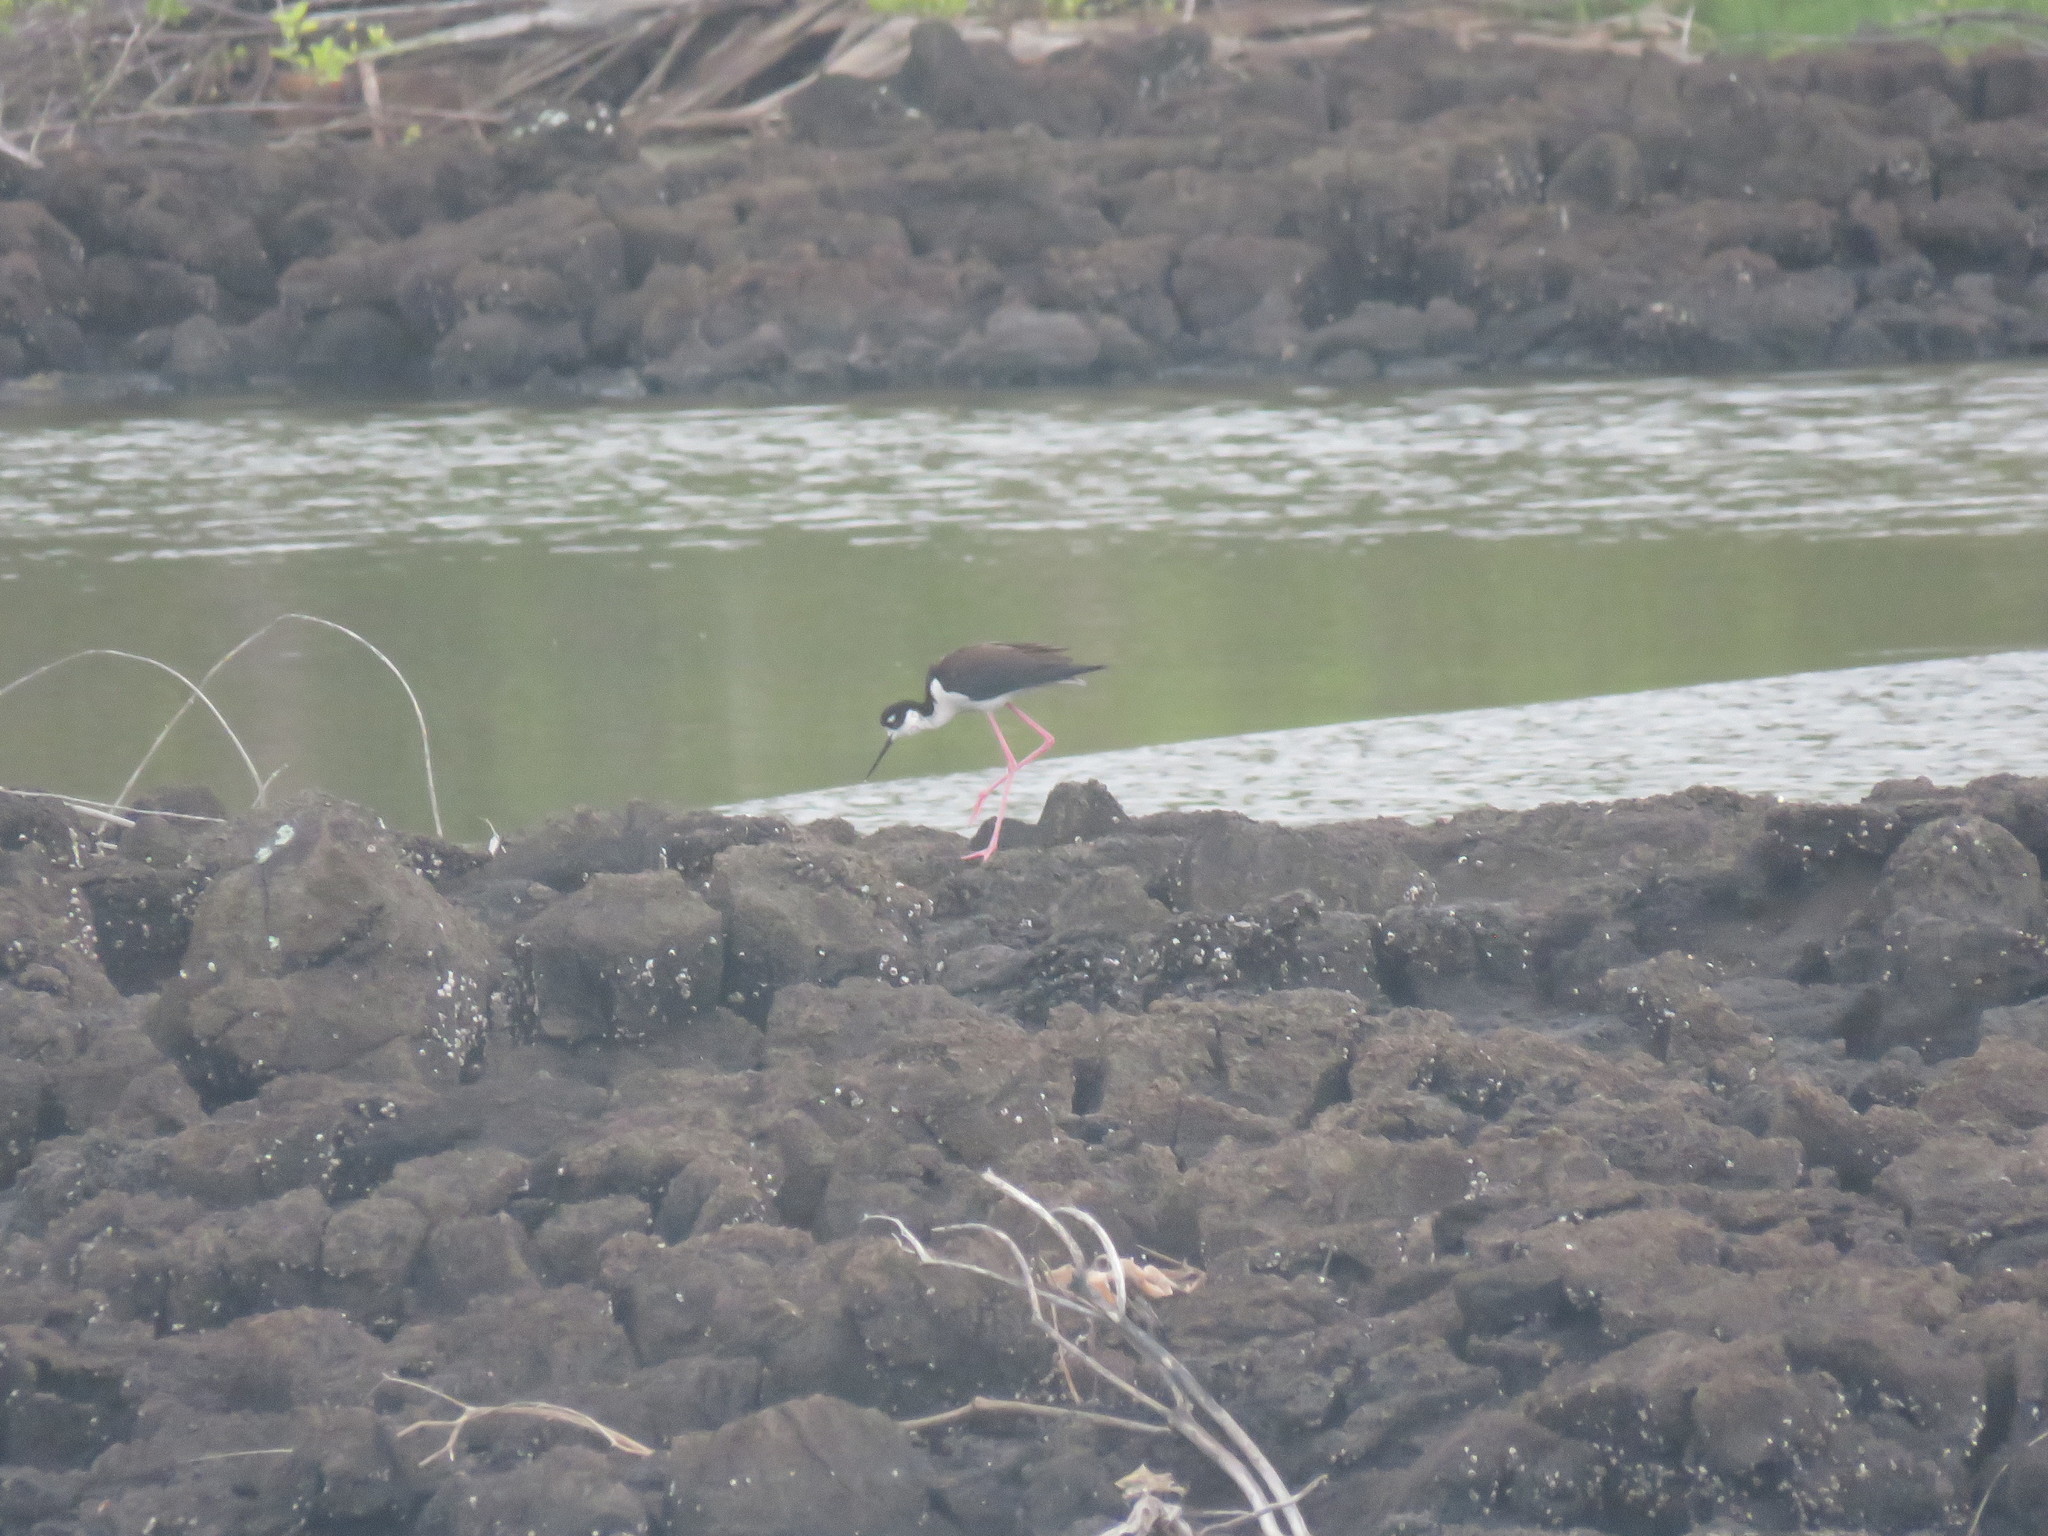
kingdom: Animalia
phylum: Chordata
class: Aves
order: Charadriiformes
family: Recurvirostridae
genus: Himantopus
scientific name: Himantopus mexicanus
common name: Black-necked stilt
